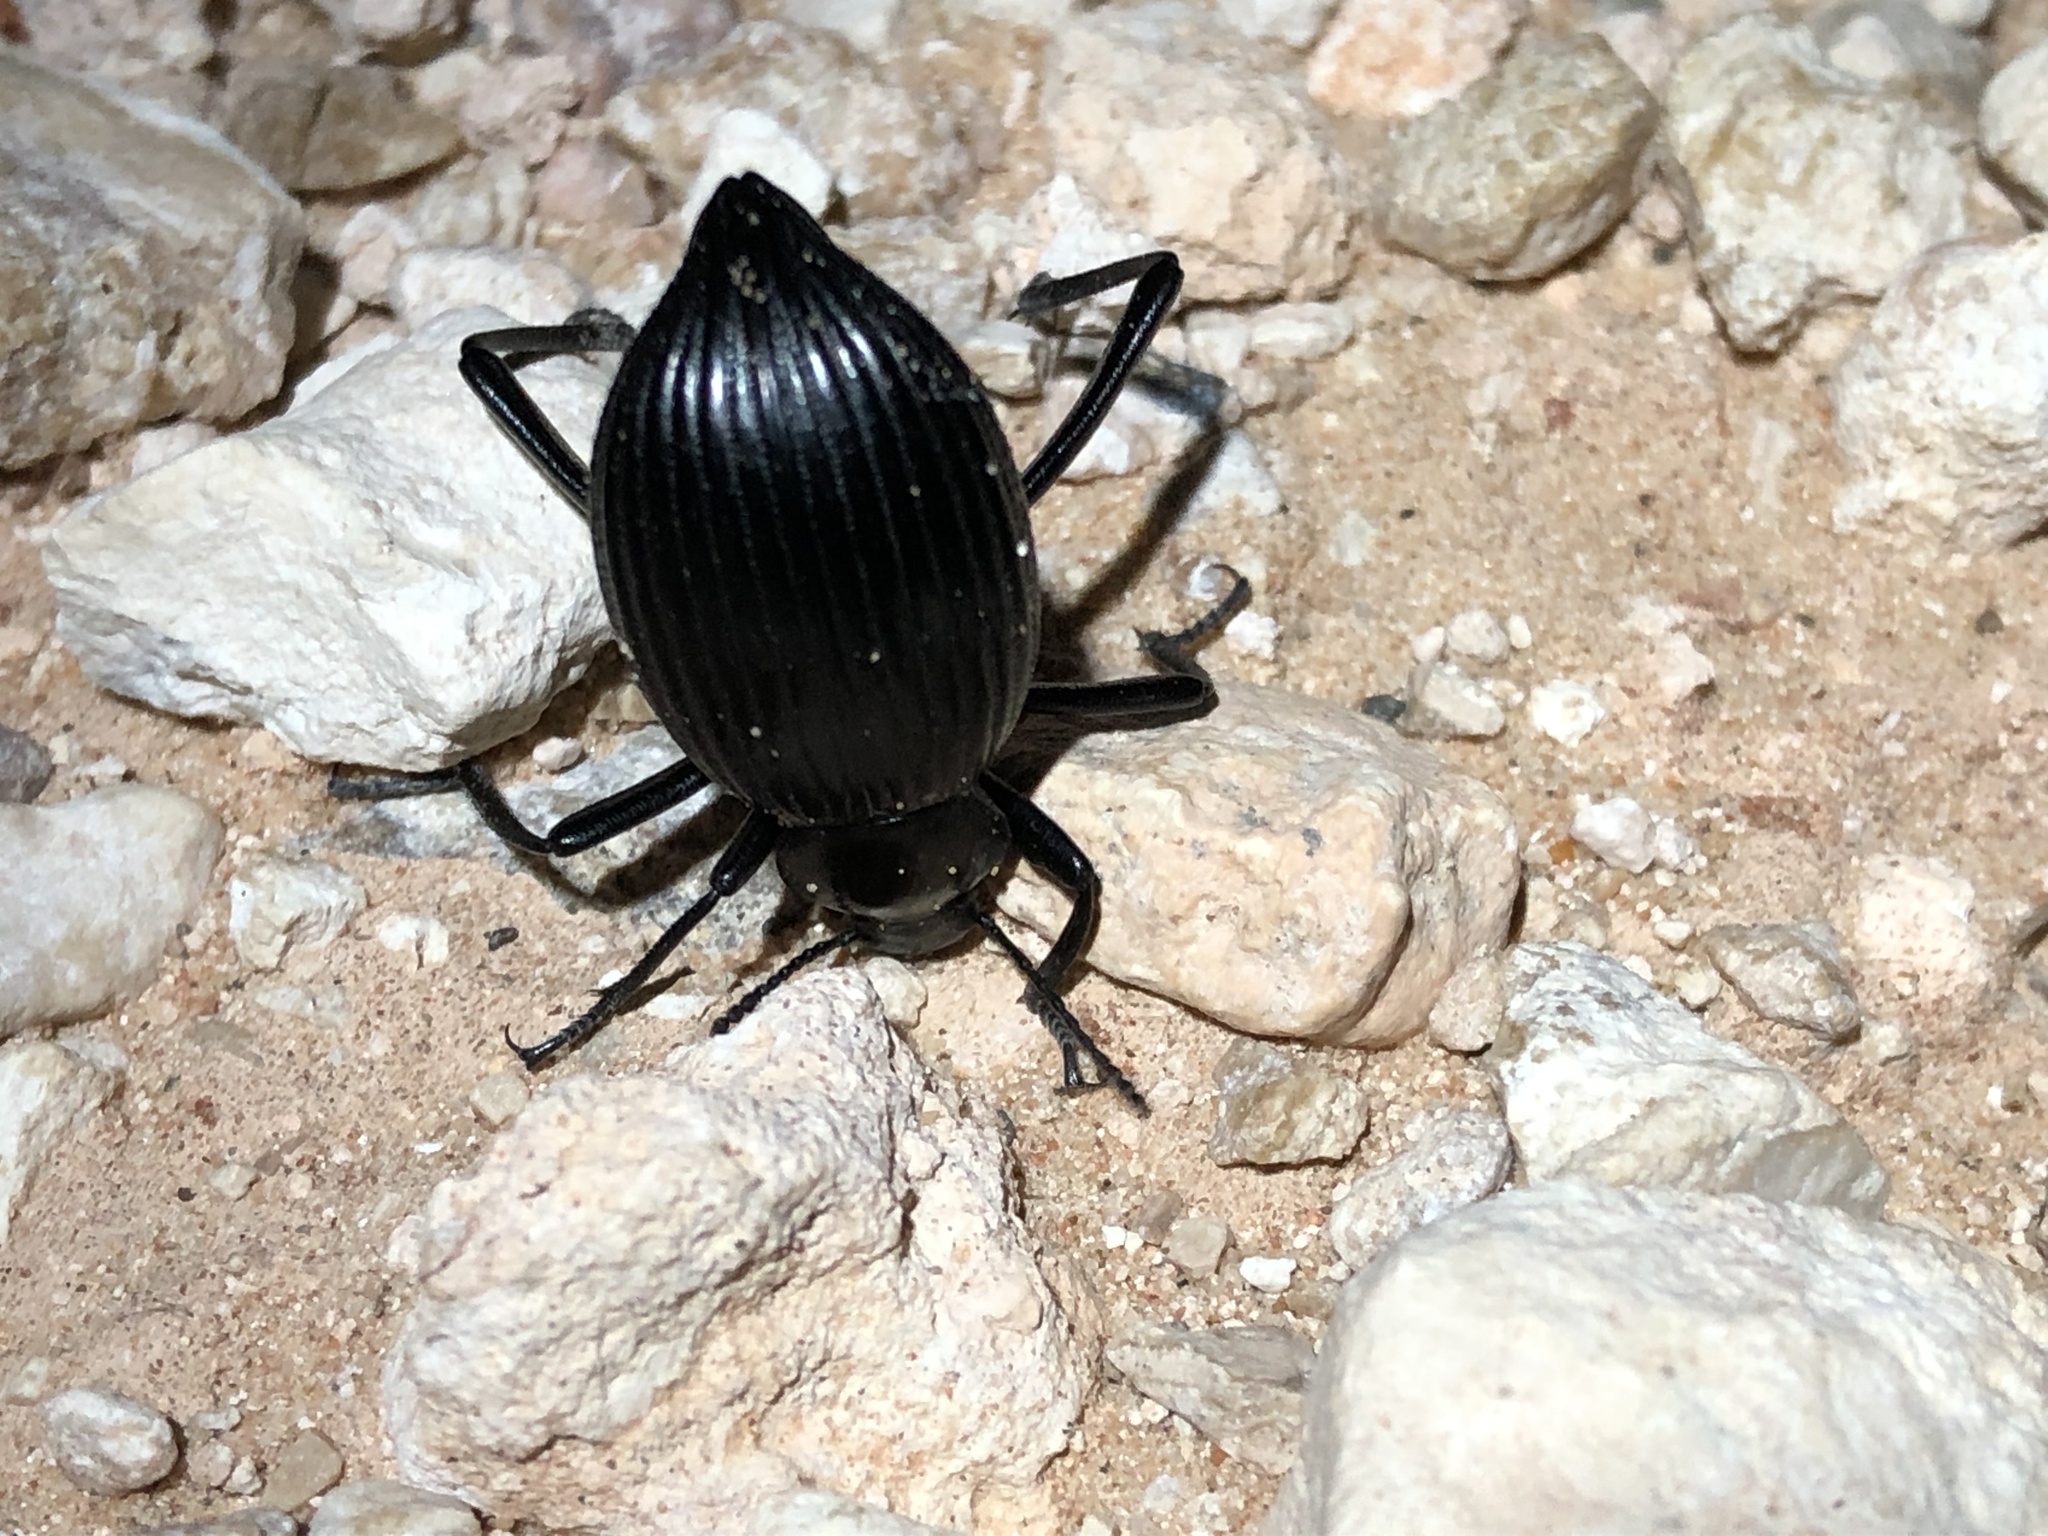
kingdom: Animalia
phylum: Arthropoda
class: Insecta
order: Coleoptera
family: Tenebrionidae
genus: Eleodes
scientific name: Eleodes hispilabris
